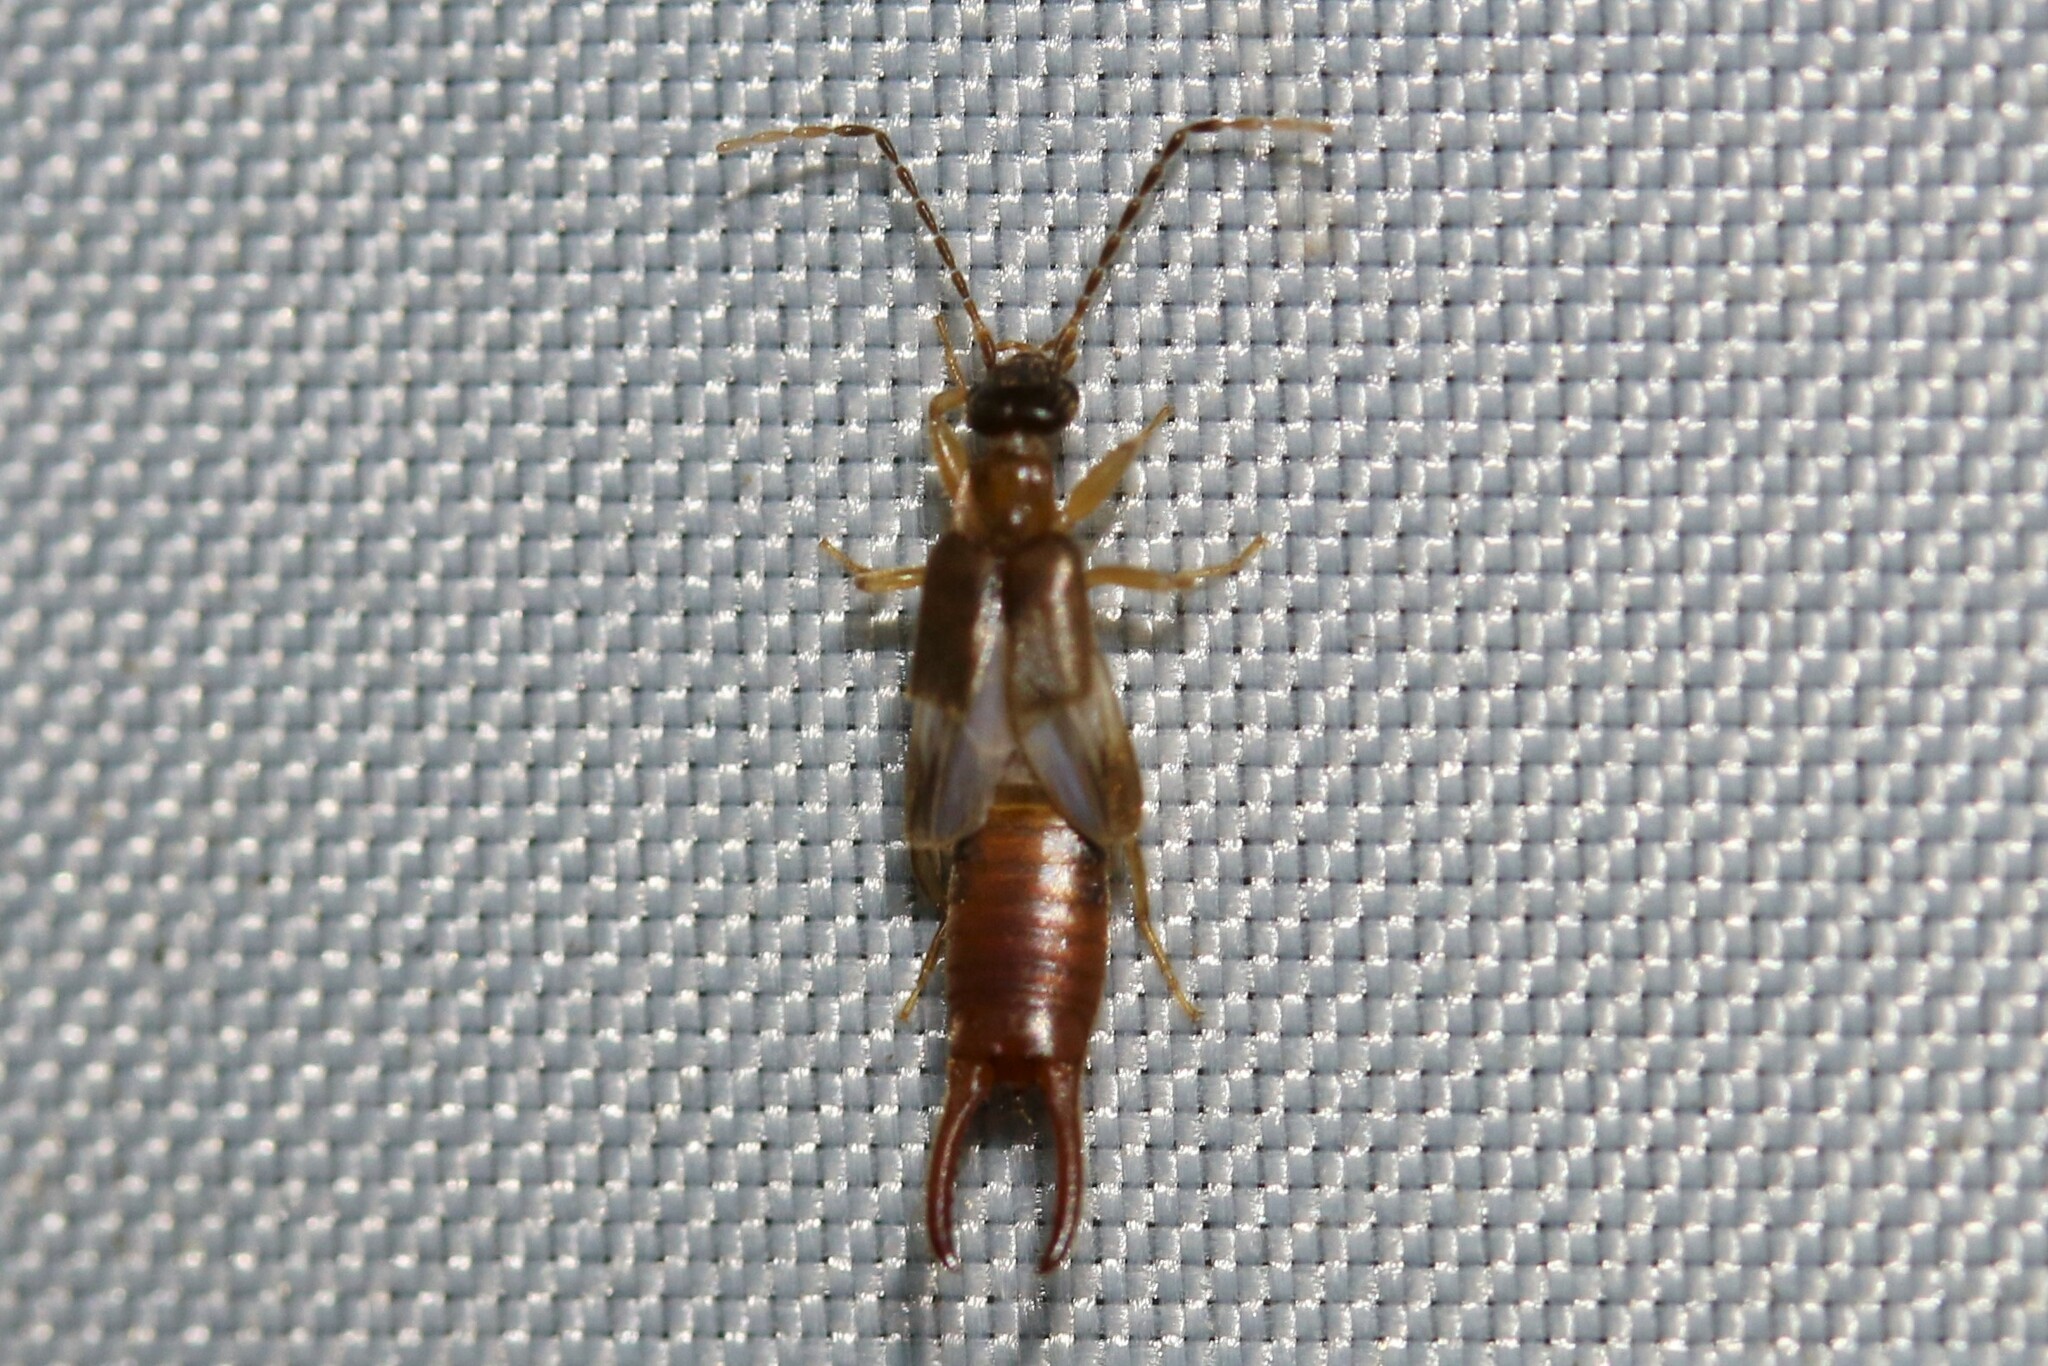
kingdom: Animalia
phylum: Arthropoda
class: Insecta
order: Dermaptera
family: Spongiphoridae
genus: Labia
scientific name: Labia minor
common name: Lesser earwig
